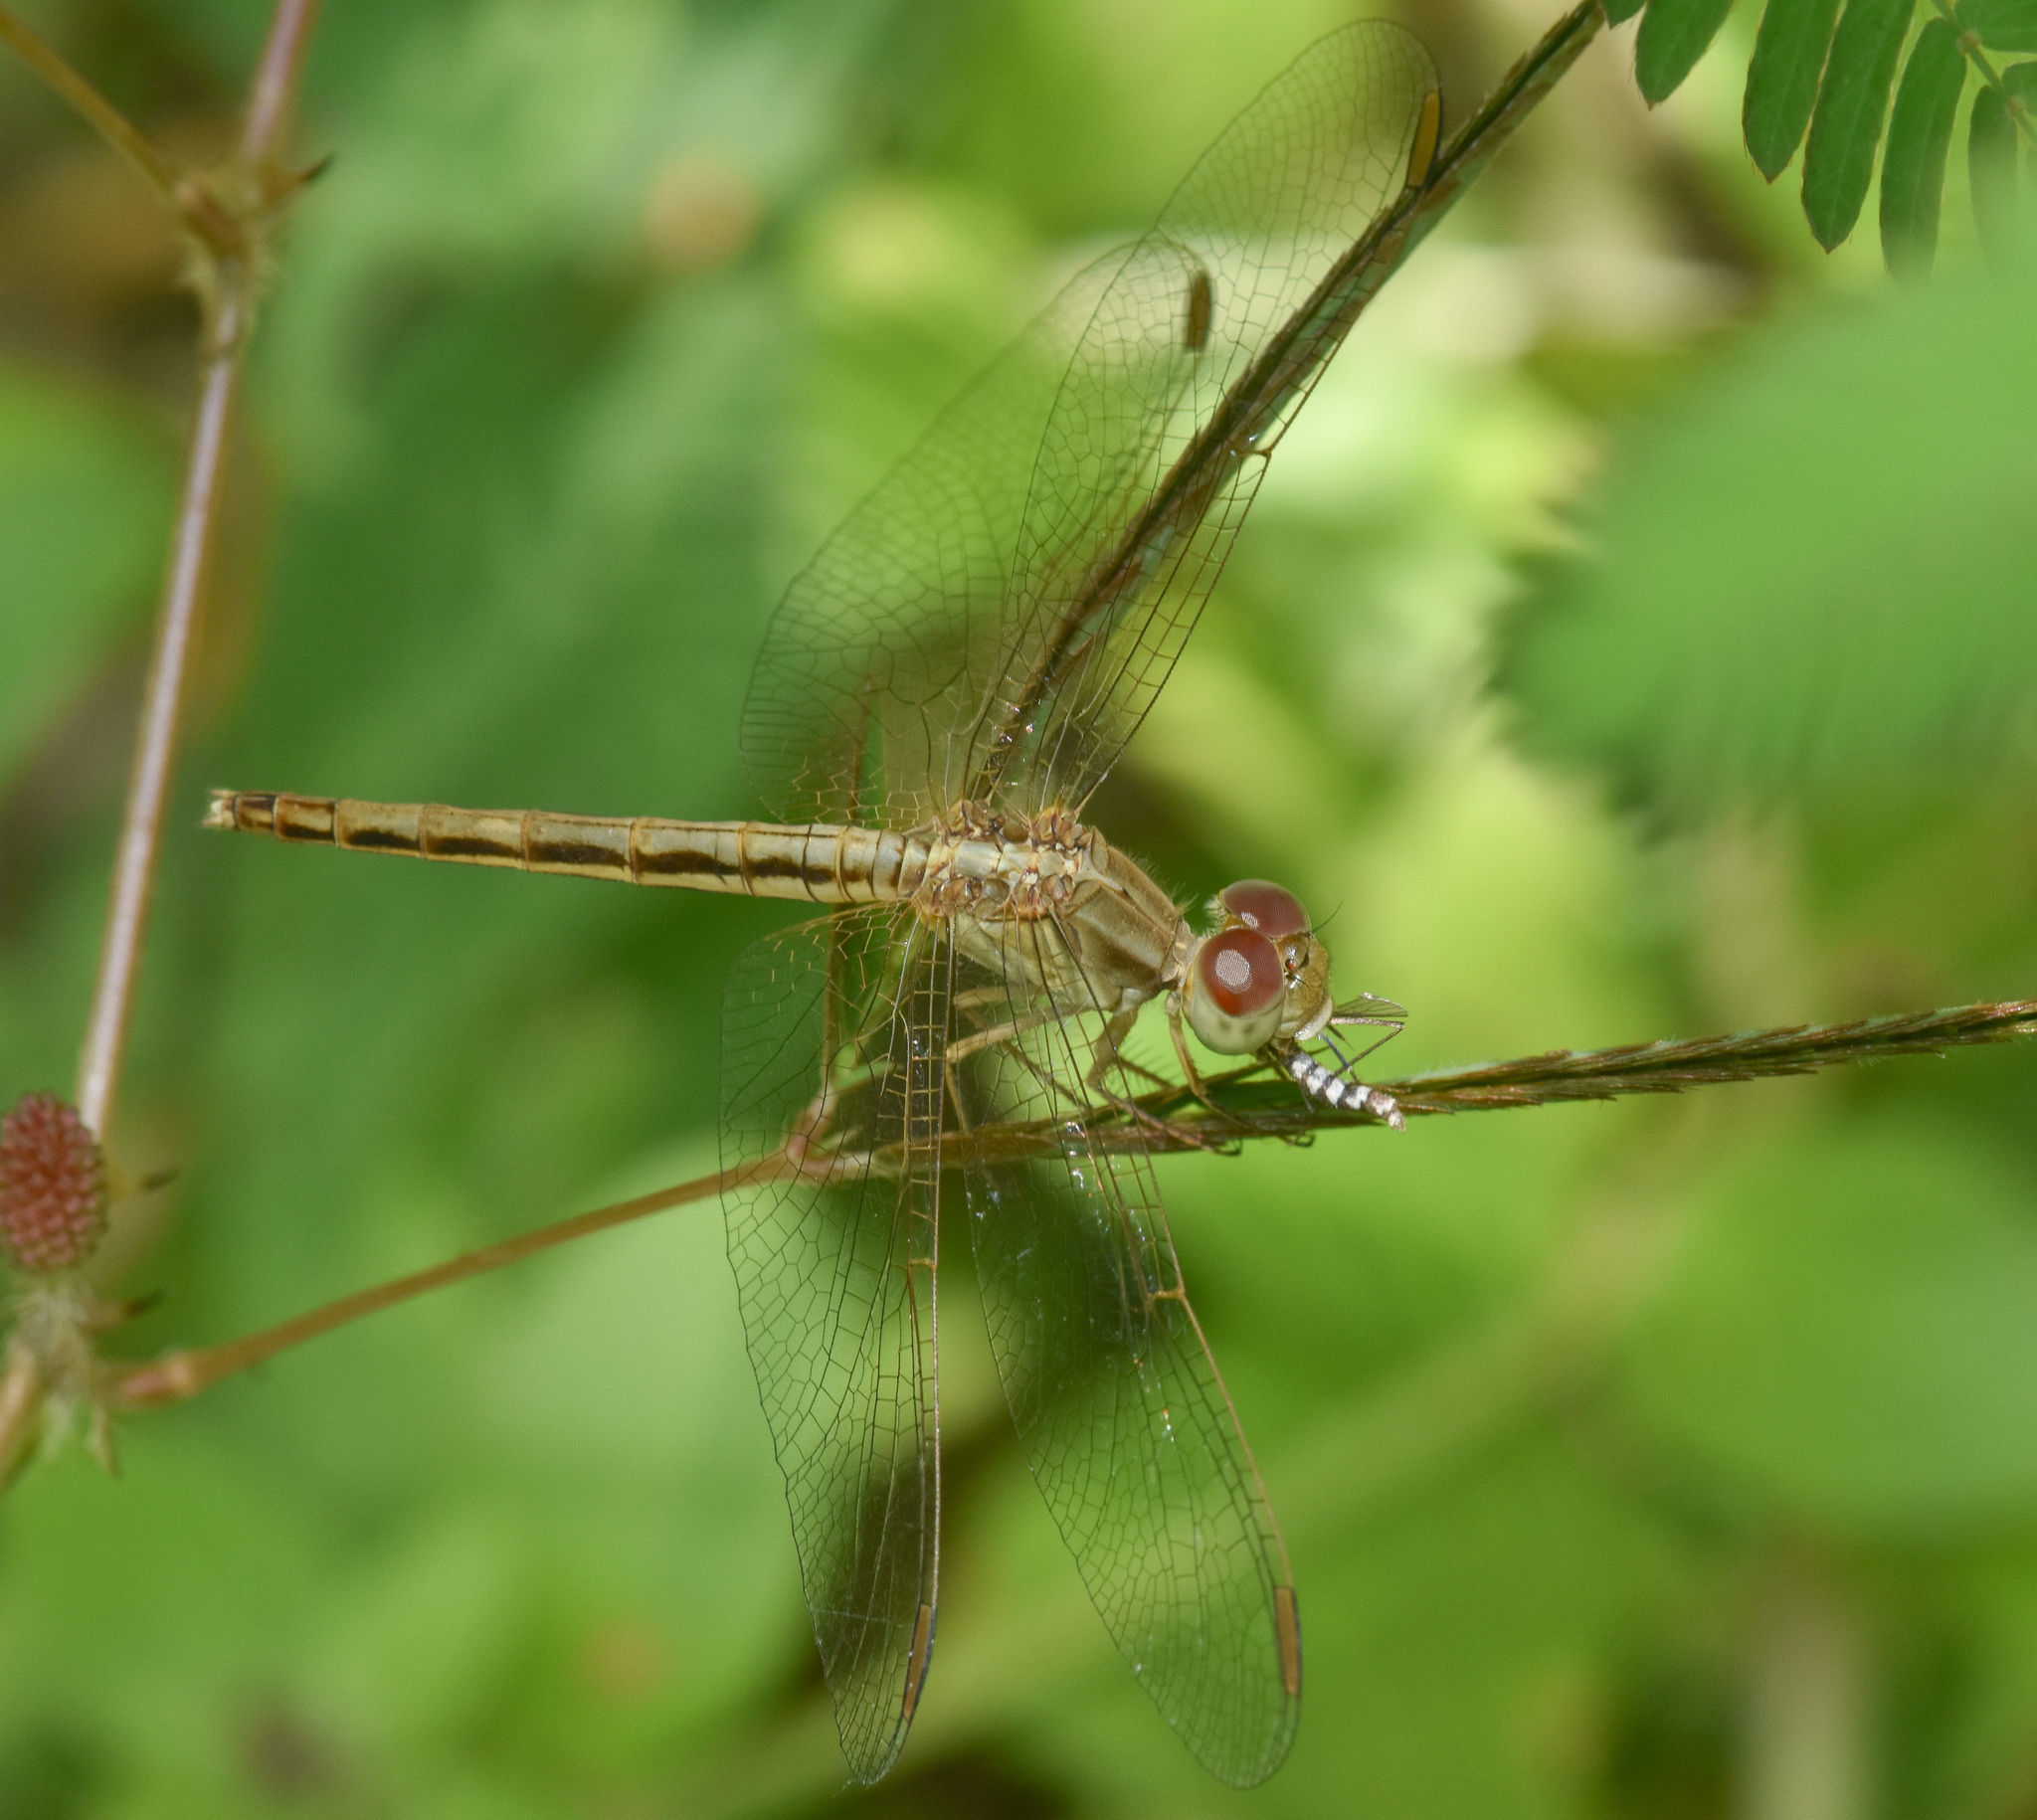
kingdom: Animalia
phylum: Arthropoda
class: Insecta
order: Odonata
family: Libellulidae
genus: Neurothemis
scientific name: Neurothemis intermedia
